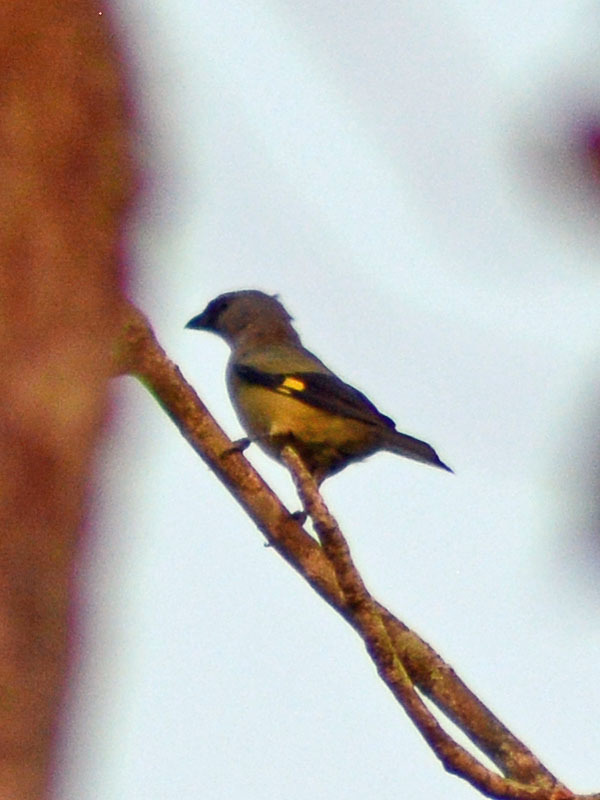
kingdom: Animalia
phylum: Chordata
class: Aves
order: Passeriformes
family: Thraupidae
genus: Thraupis
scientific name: Thraupis abbas
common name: Yellow-winged tanager
